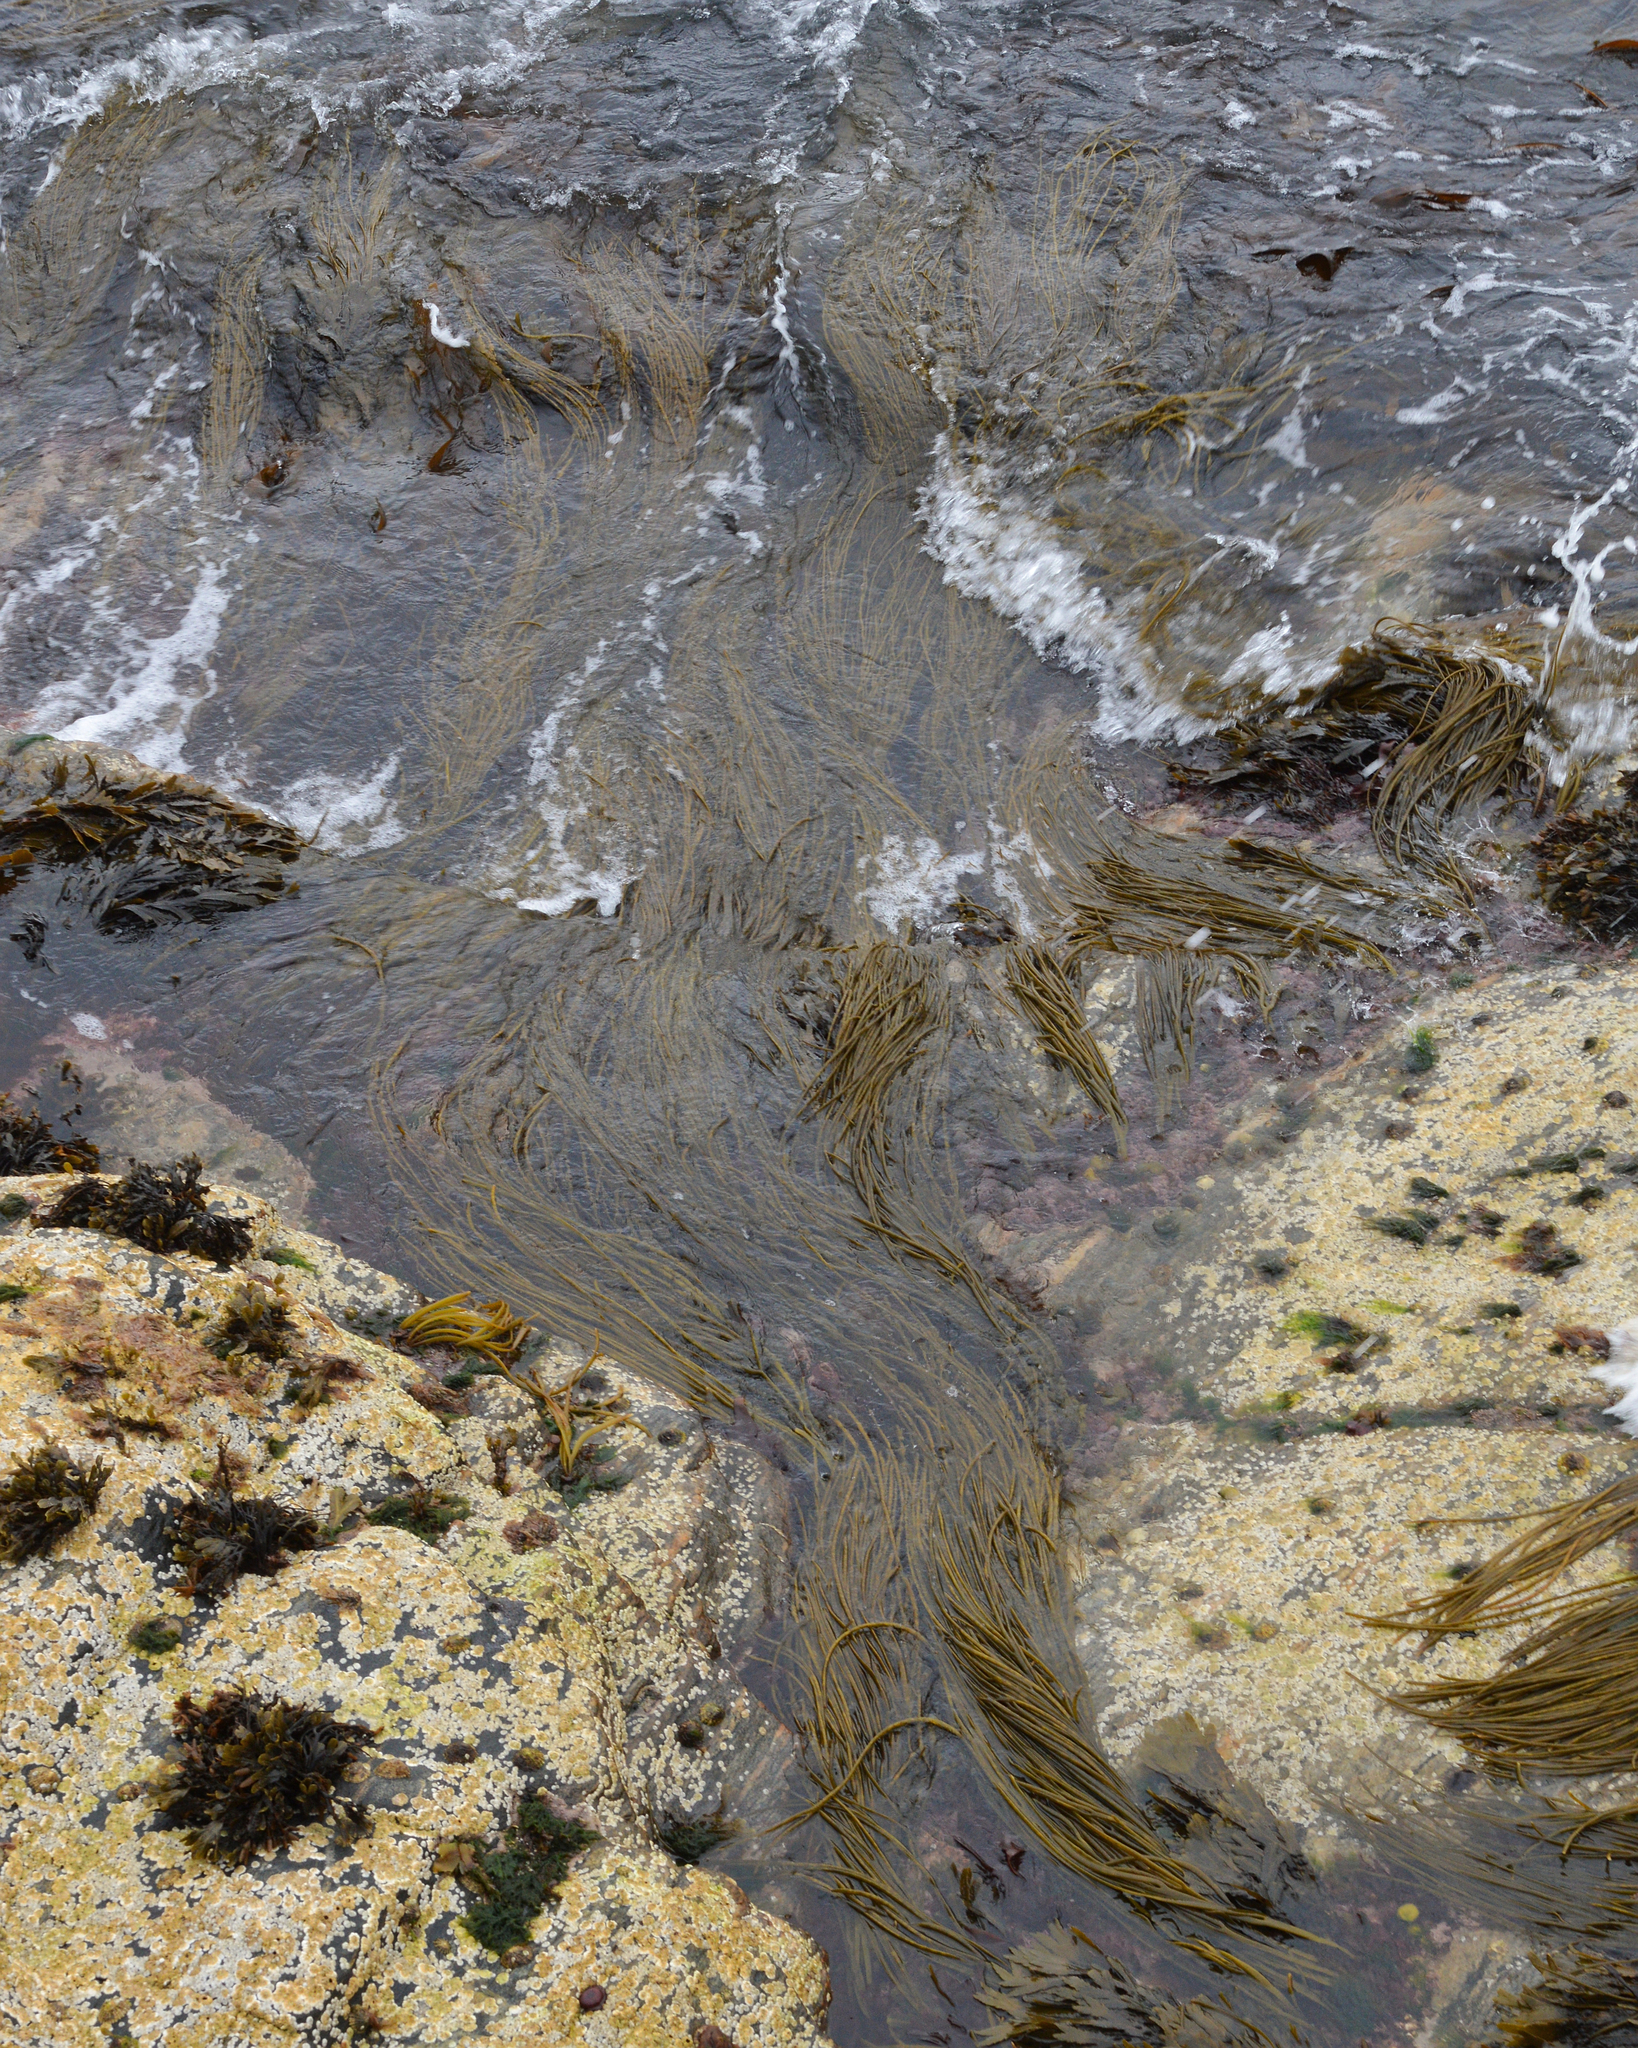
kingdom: Chromista
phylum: Ochrophyta
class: Phaeophyceae
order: Fucales
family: Himanthaliaceae
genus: Himanthalia
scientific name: Himanthalia elongata
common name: Sea-thong
